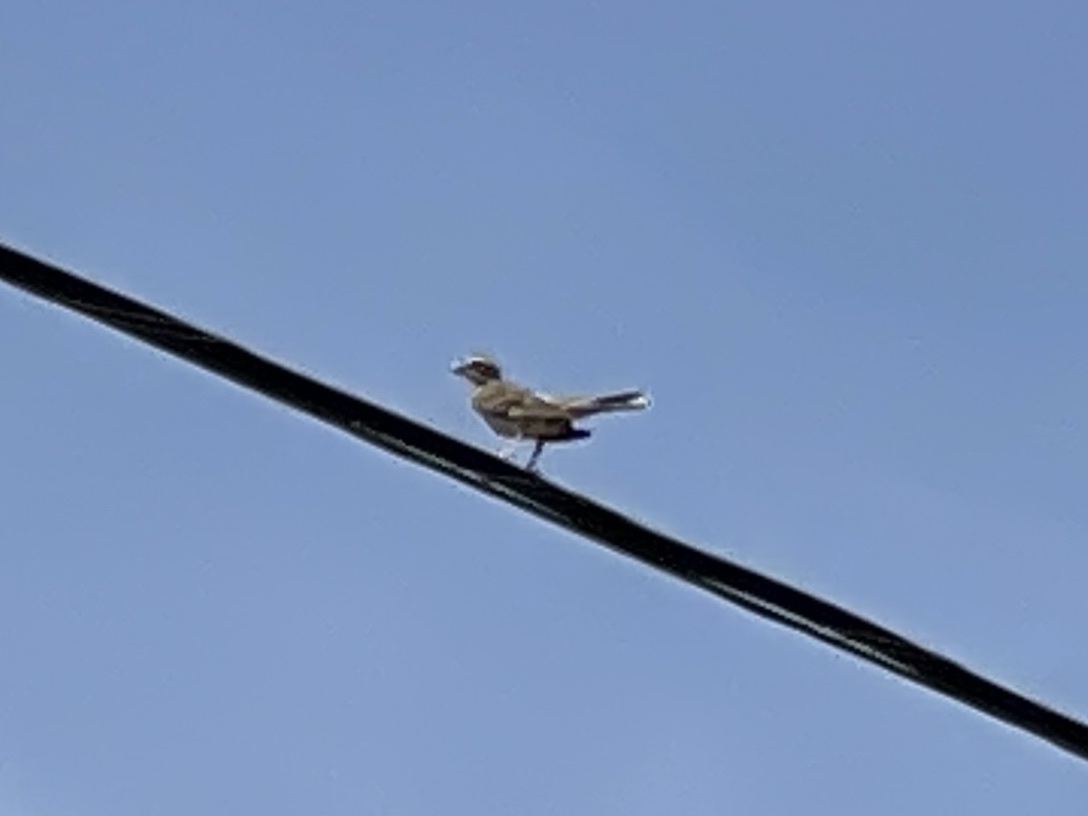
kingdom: Animalia
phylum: Chordata
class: Aves
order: Passeriformes
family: Passerellidae
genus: Chondestes
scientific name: Chondestes grammacus
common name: Lark sparrow
